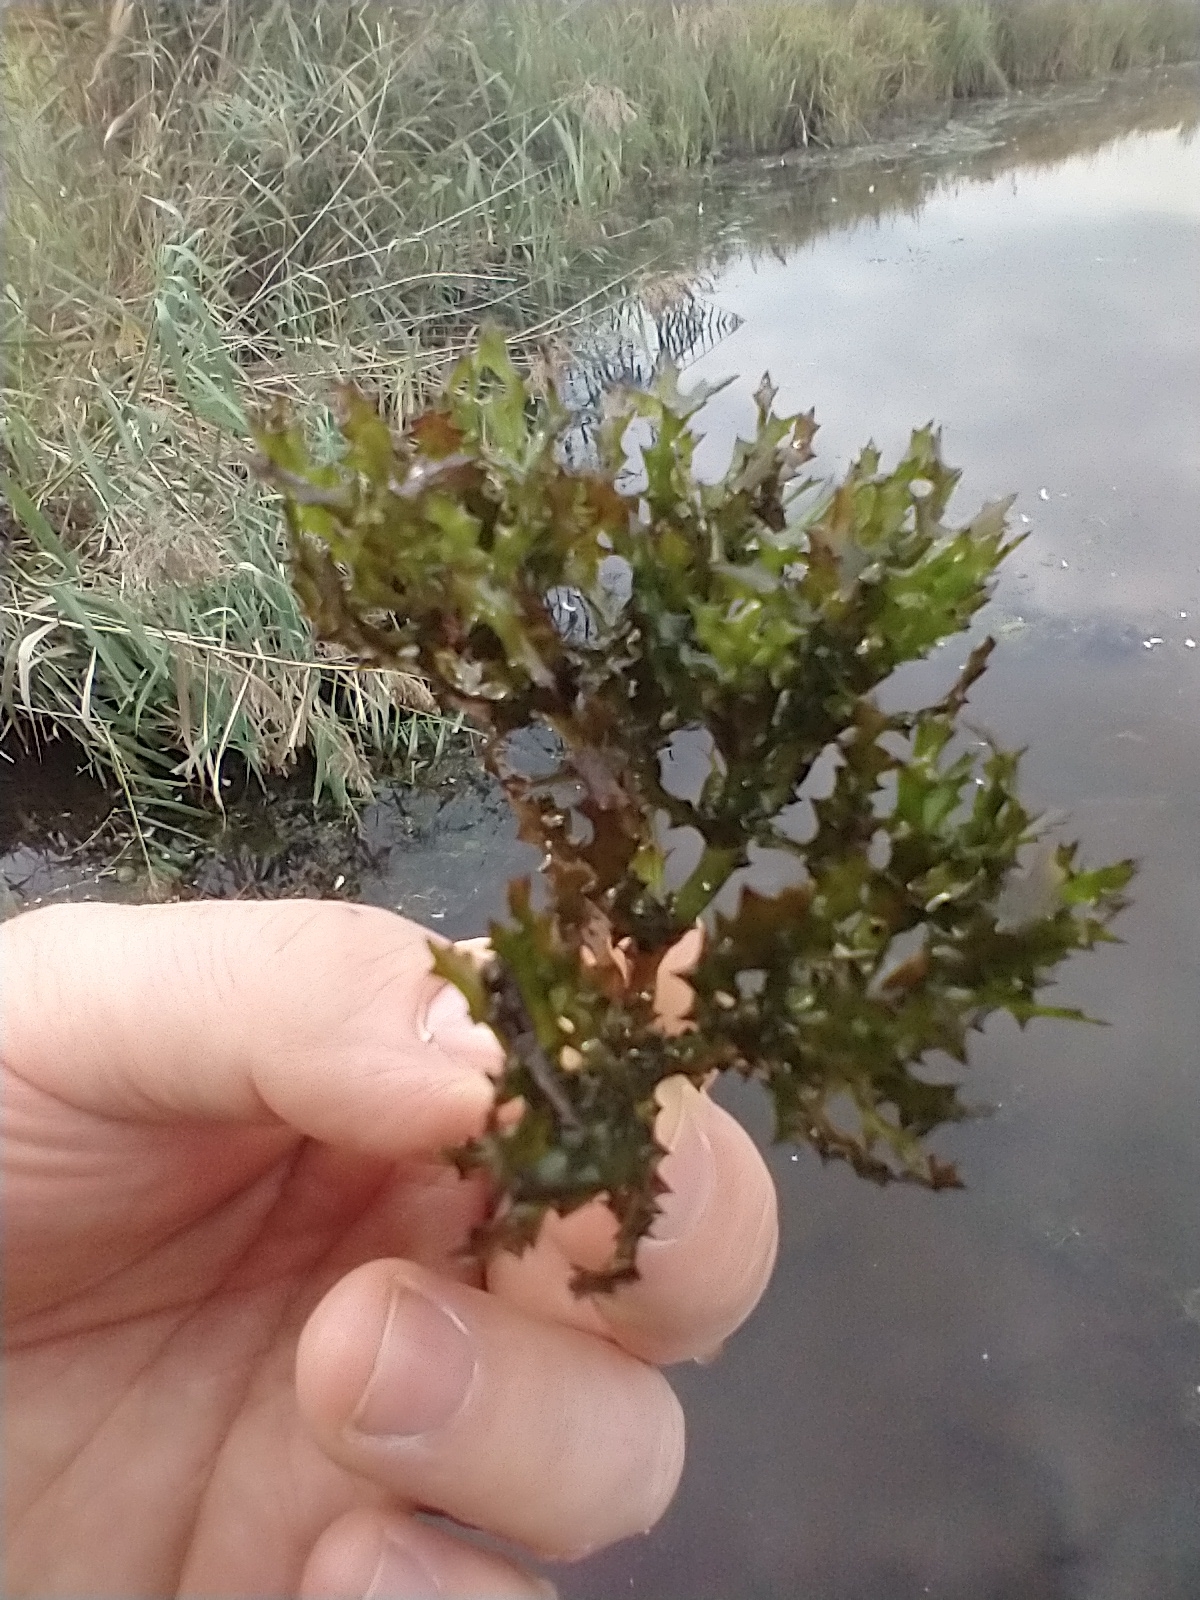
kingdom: Plantae
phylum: Tracheophyta
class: Liliopsida
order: Alismatales
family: Hydrocharitaceae
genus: Najas
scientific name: Najas marina
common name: Holly-leaved naiad
